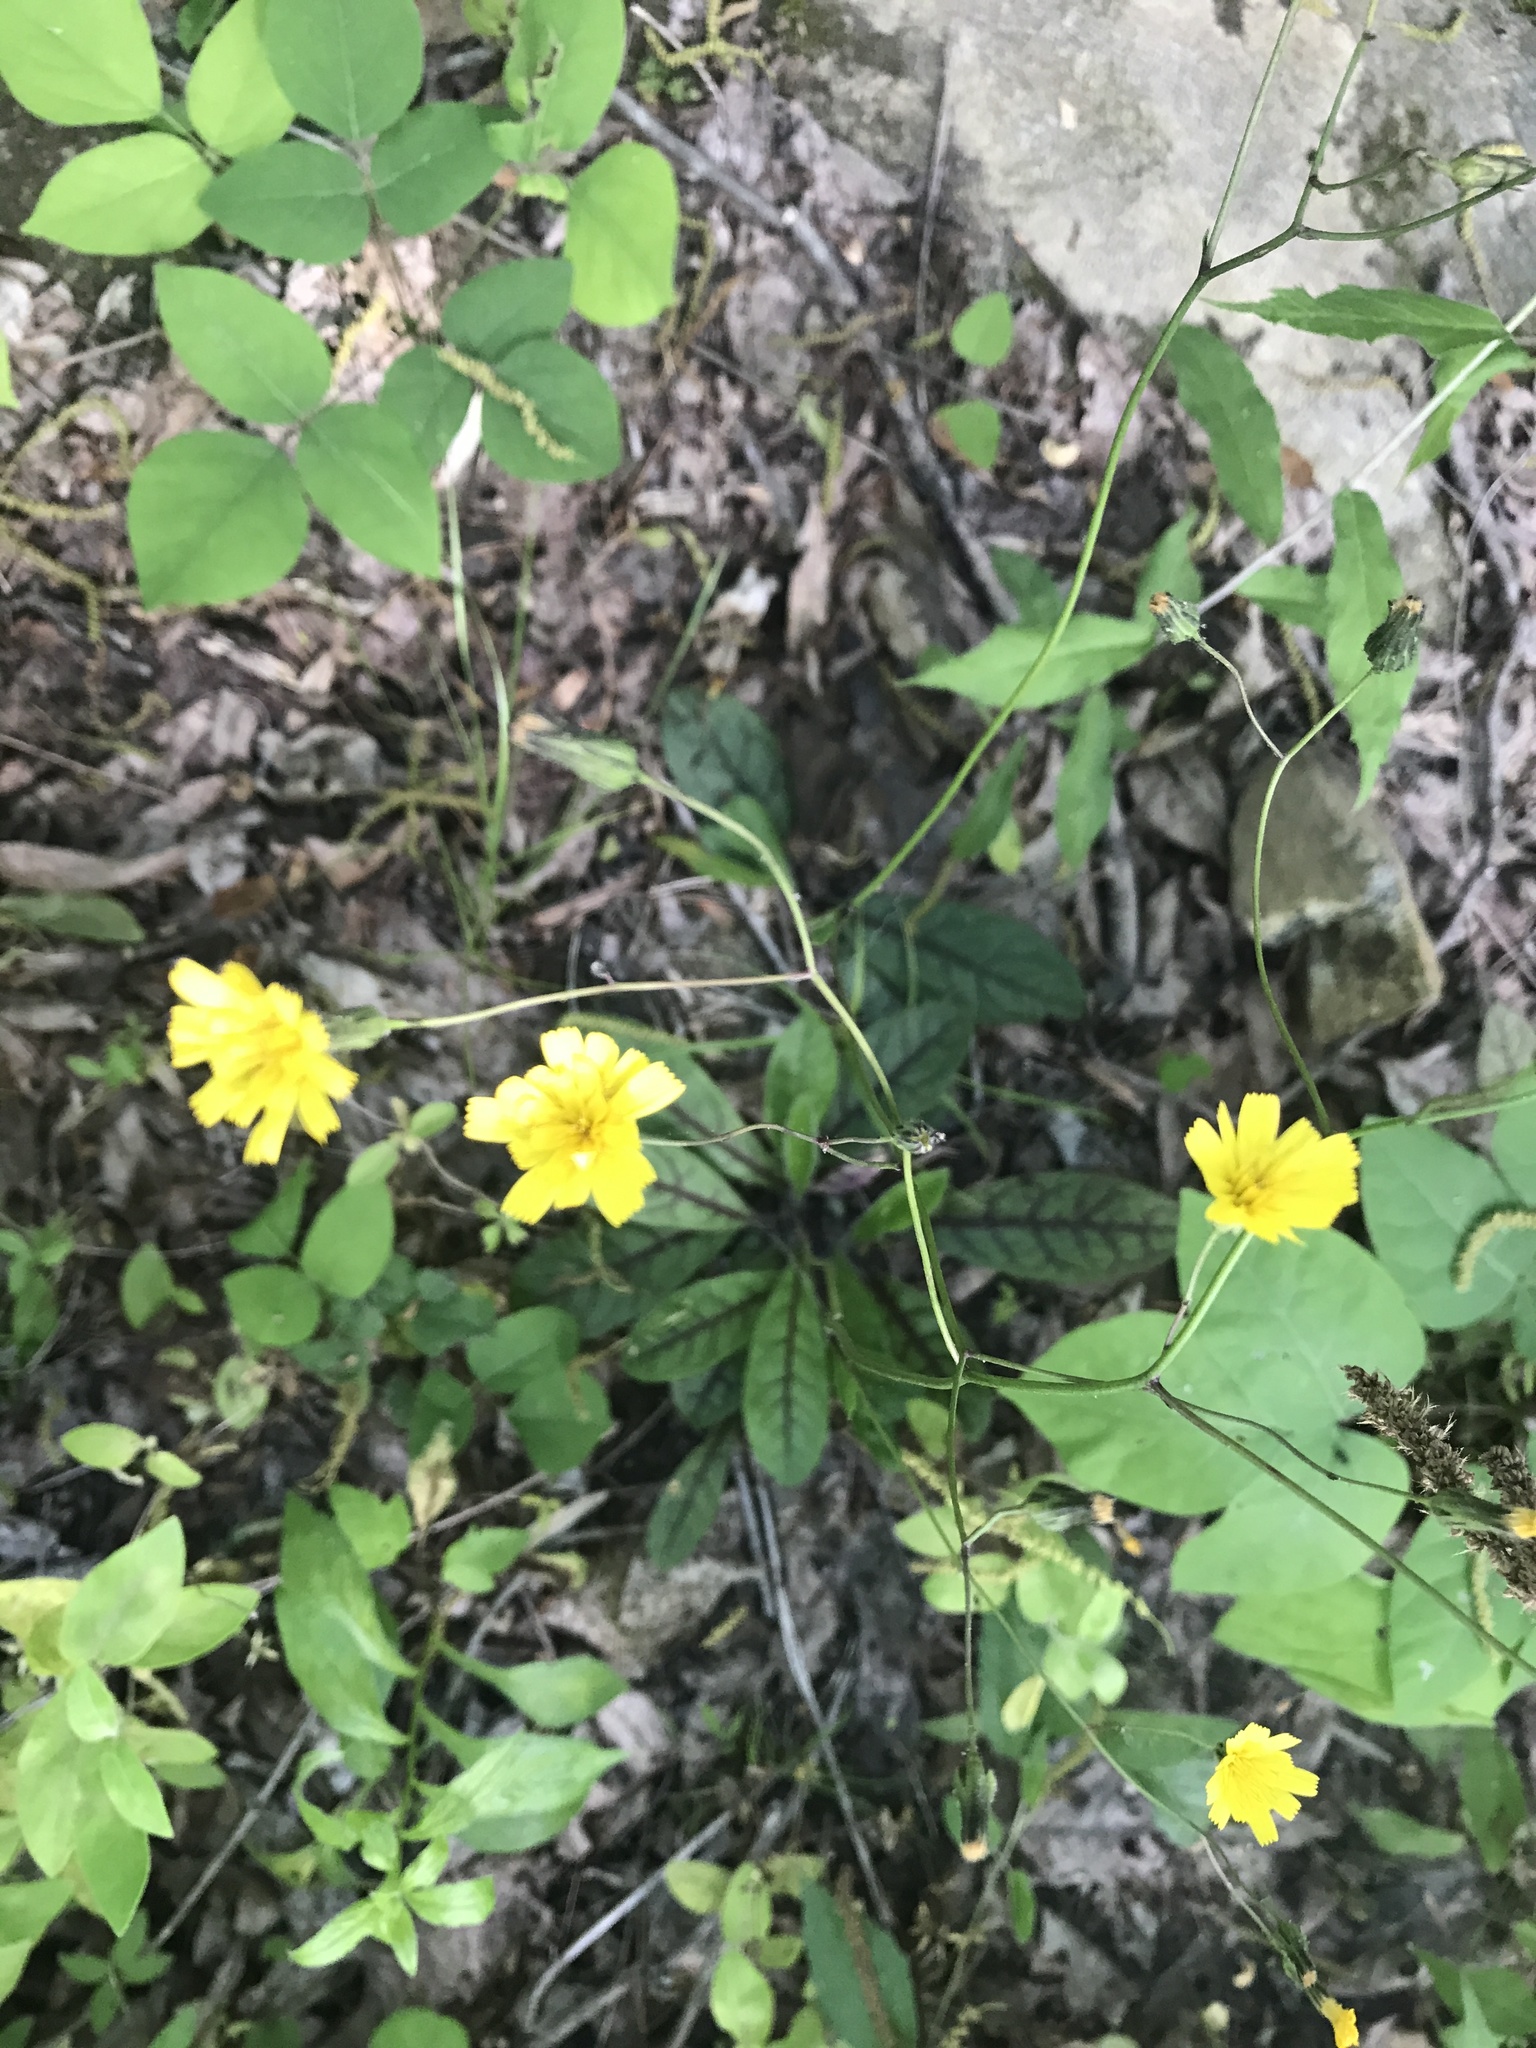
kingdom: Plantae
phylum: Tracheophyta
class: Magnoliopsida
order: Asterales
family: Asteraceae
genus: Hieracium
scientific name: Hieracium venosum
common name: Rattlesnake hawkweed
